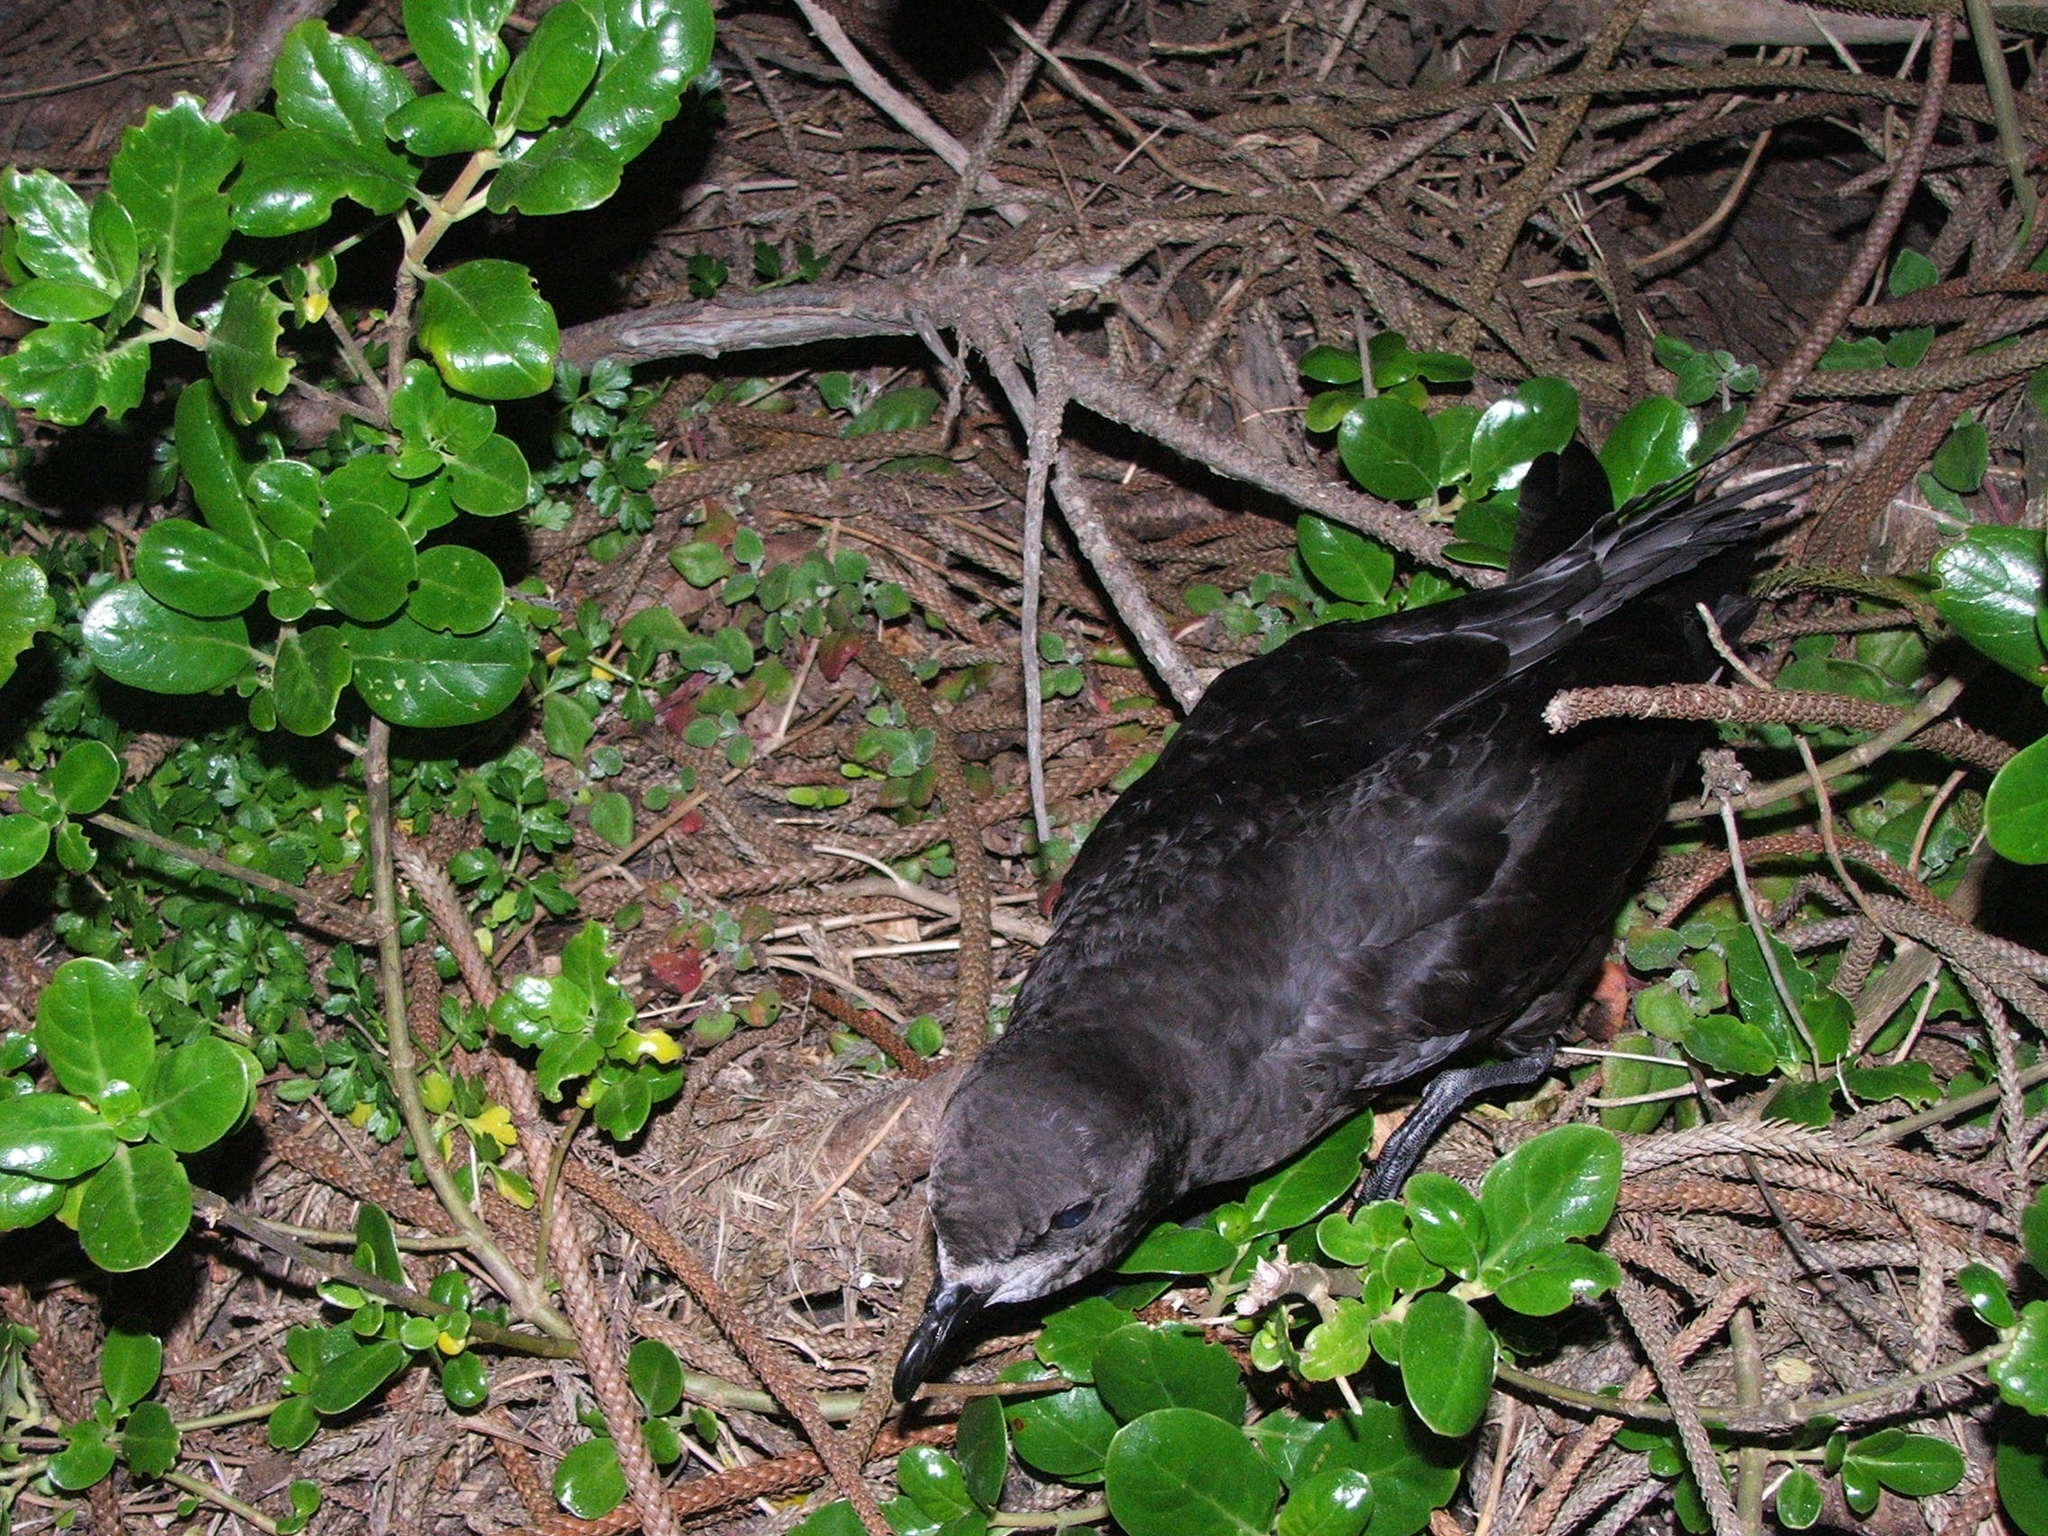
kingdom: Animalia
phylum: Chordata
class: Aves
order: Procellariiformes
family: Procellariidae
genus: Pterodroma
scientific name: Pterodroma macroptera
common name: Great-winged petrel
